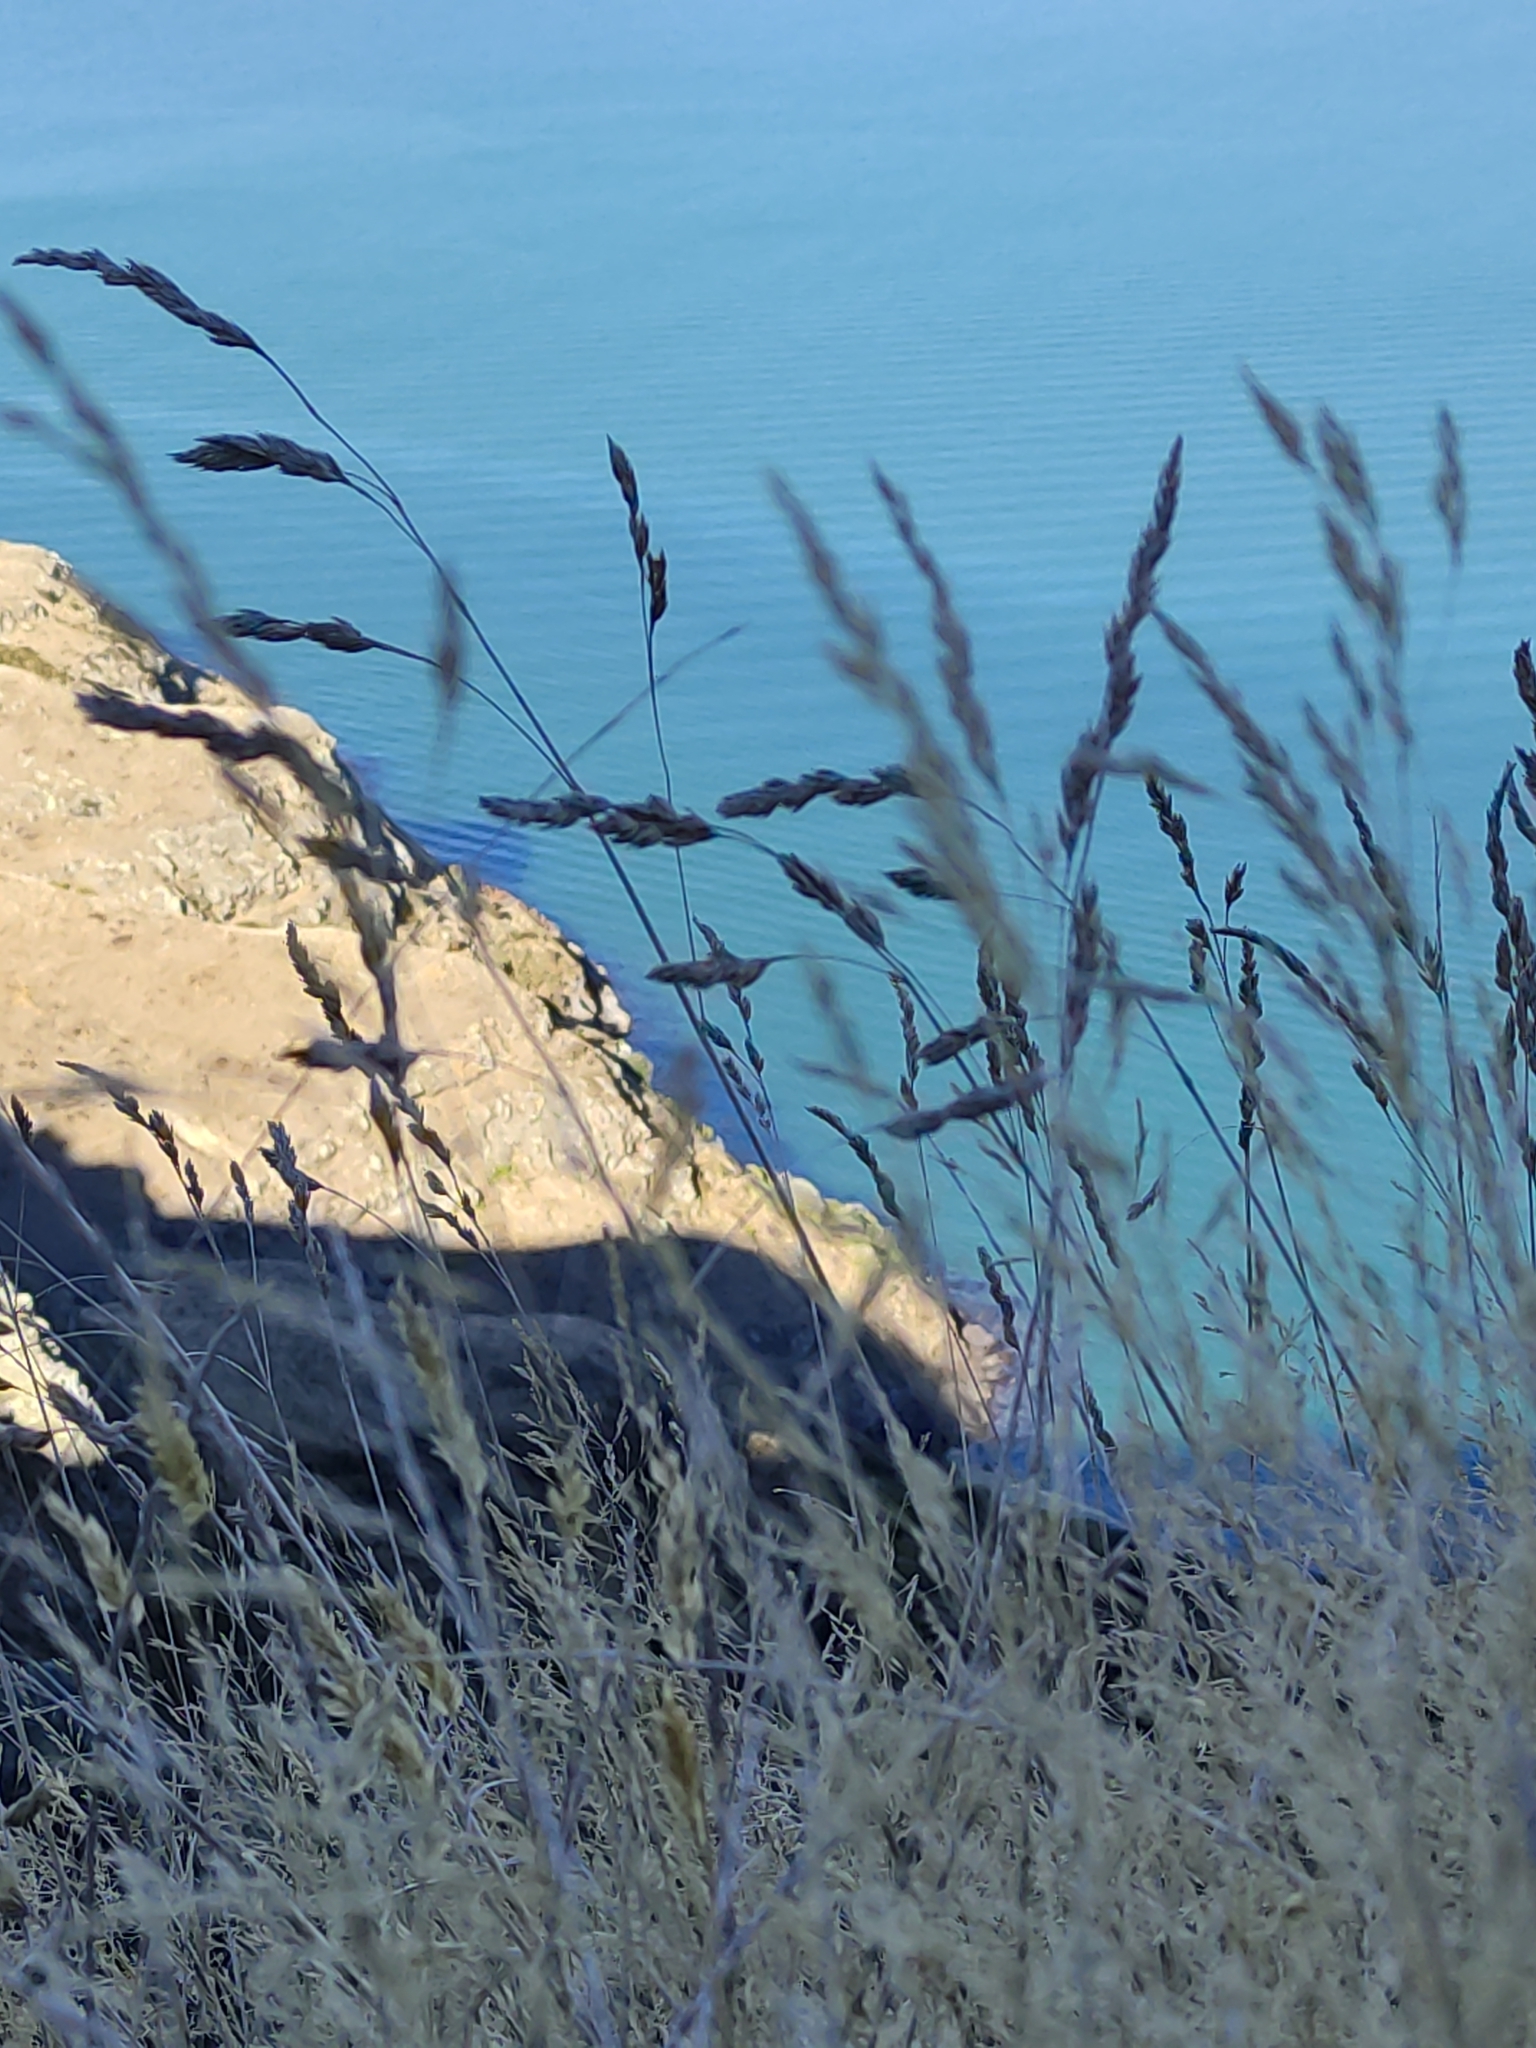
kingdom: Plantae
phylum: Tracheophyta
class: Liliopsida
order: Poales
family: Poaceae
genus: Agrostis
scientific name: Agrostis capillaris
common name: Colonial bentgrass
